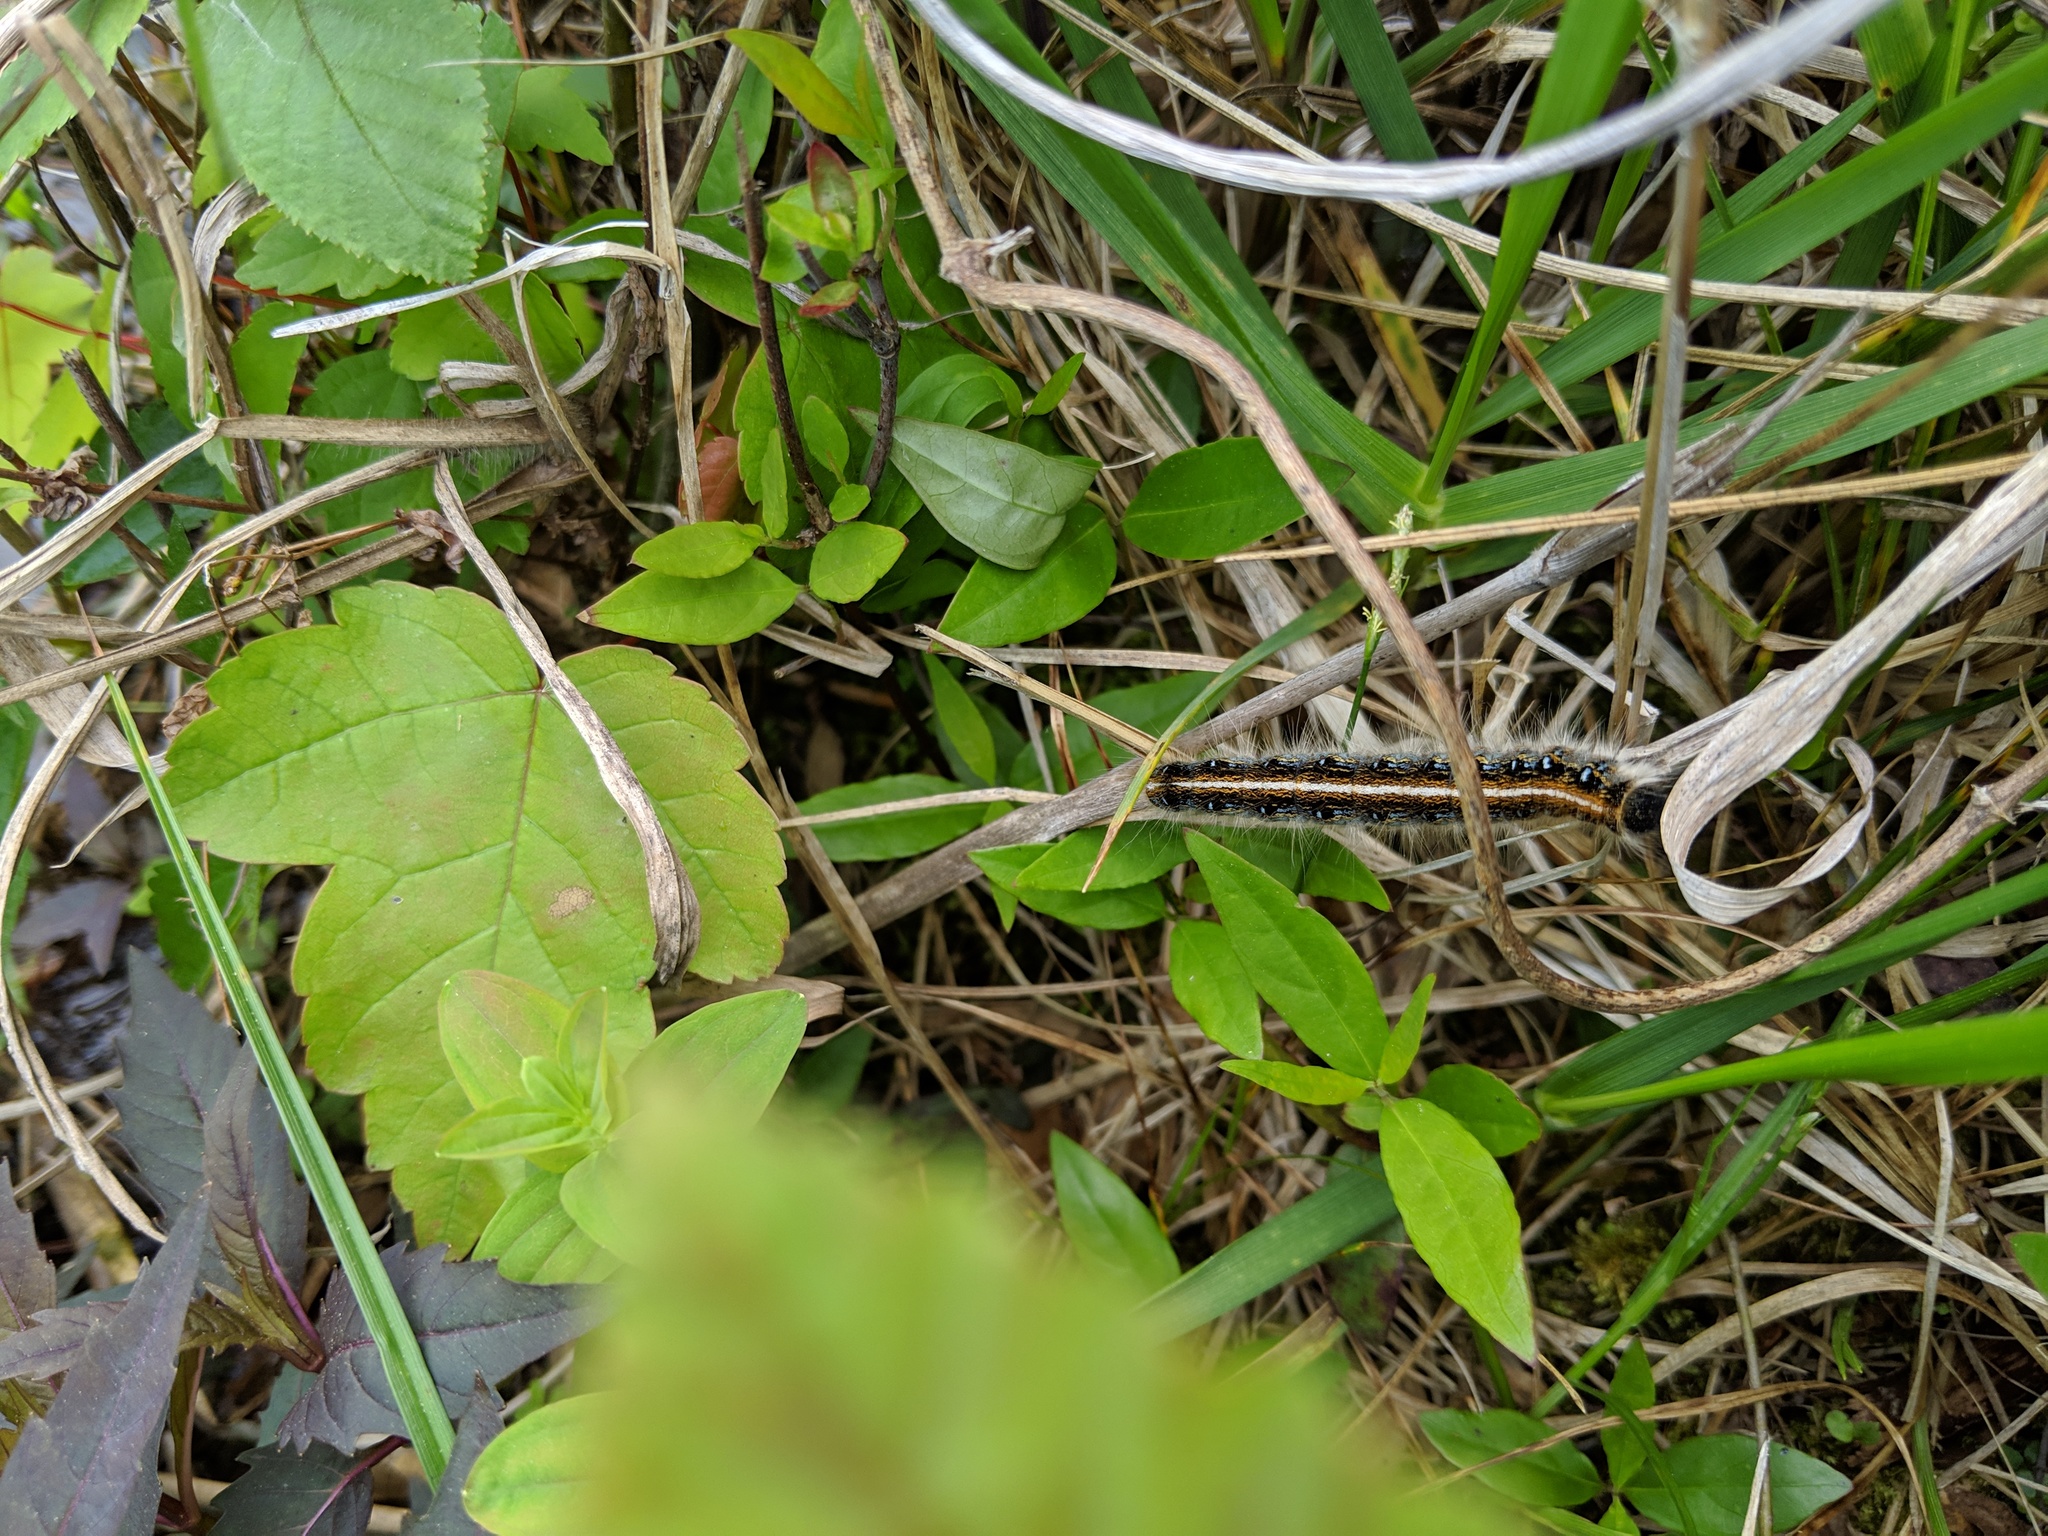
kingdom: Animalia
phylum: Arthropoda
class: Insecta
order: Lepidoptera
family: Lasiocampidae
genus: Malacosoma
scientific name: Malacosoma americana
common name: Eastern tent caterpillar moth
